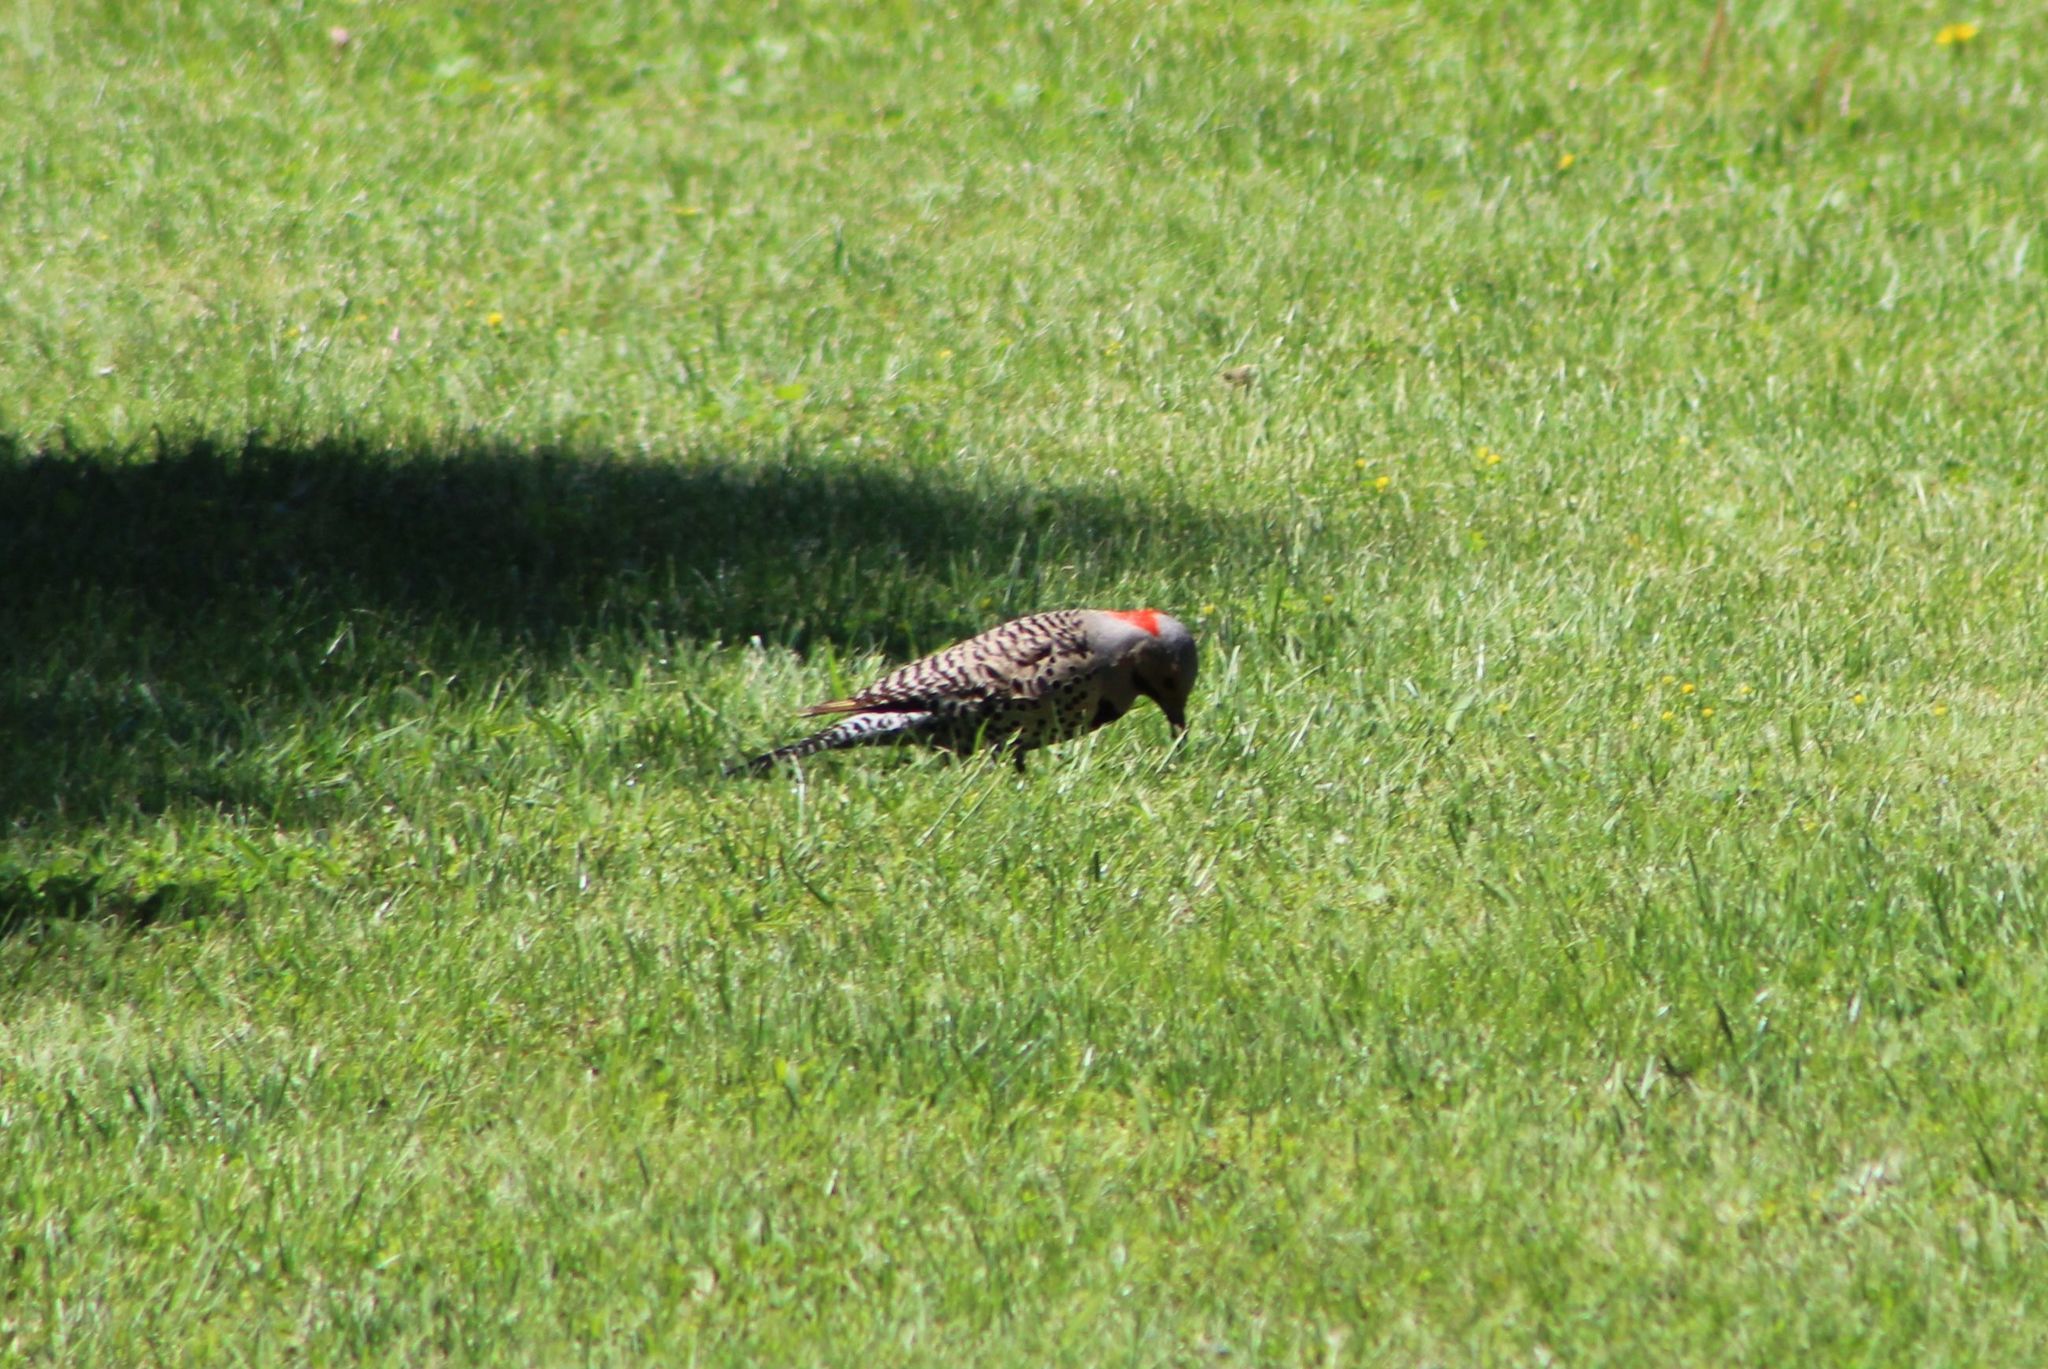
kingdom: Animalia
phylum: Chordata
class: Aves
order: Piciformes
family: Picidae
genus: Colaptes
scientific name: Colaptes auratus
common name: Northern flicker
